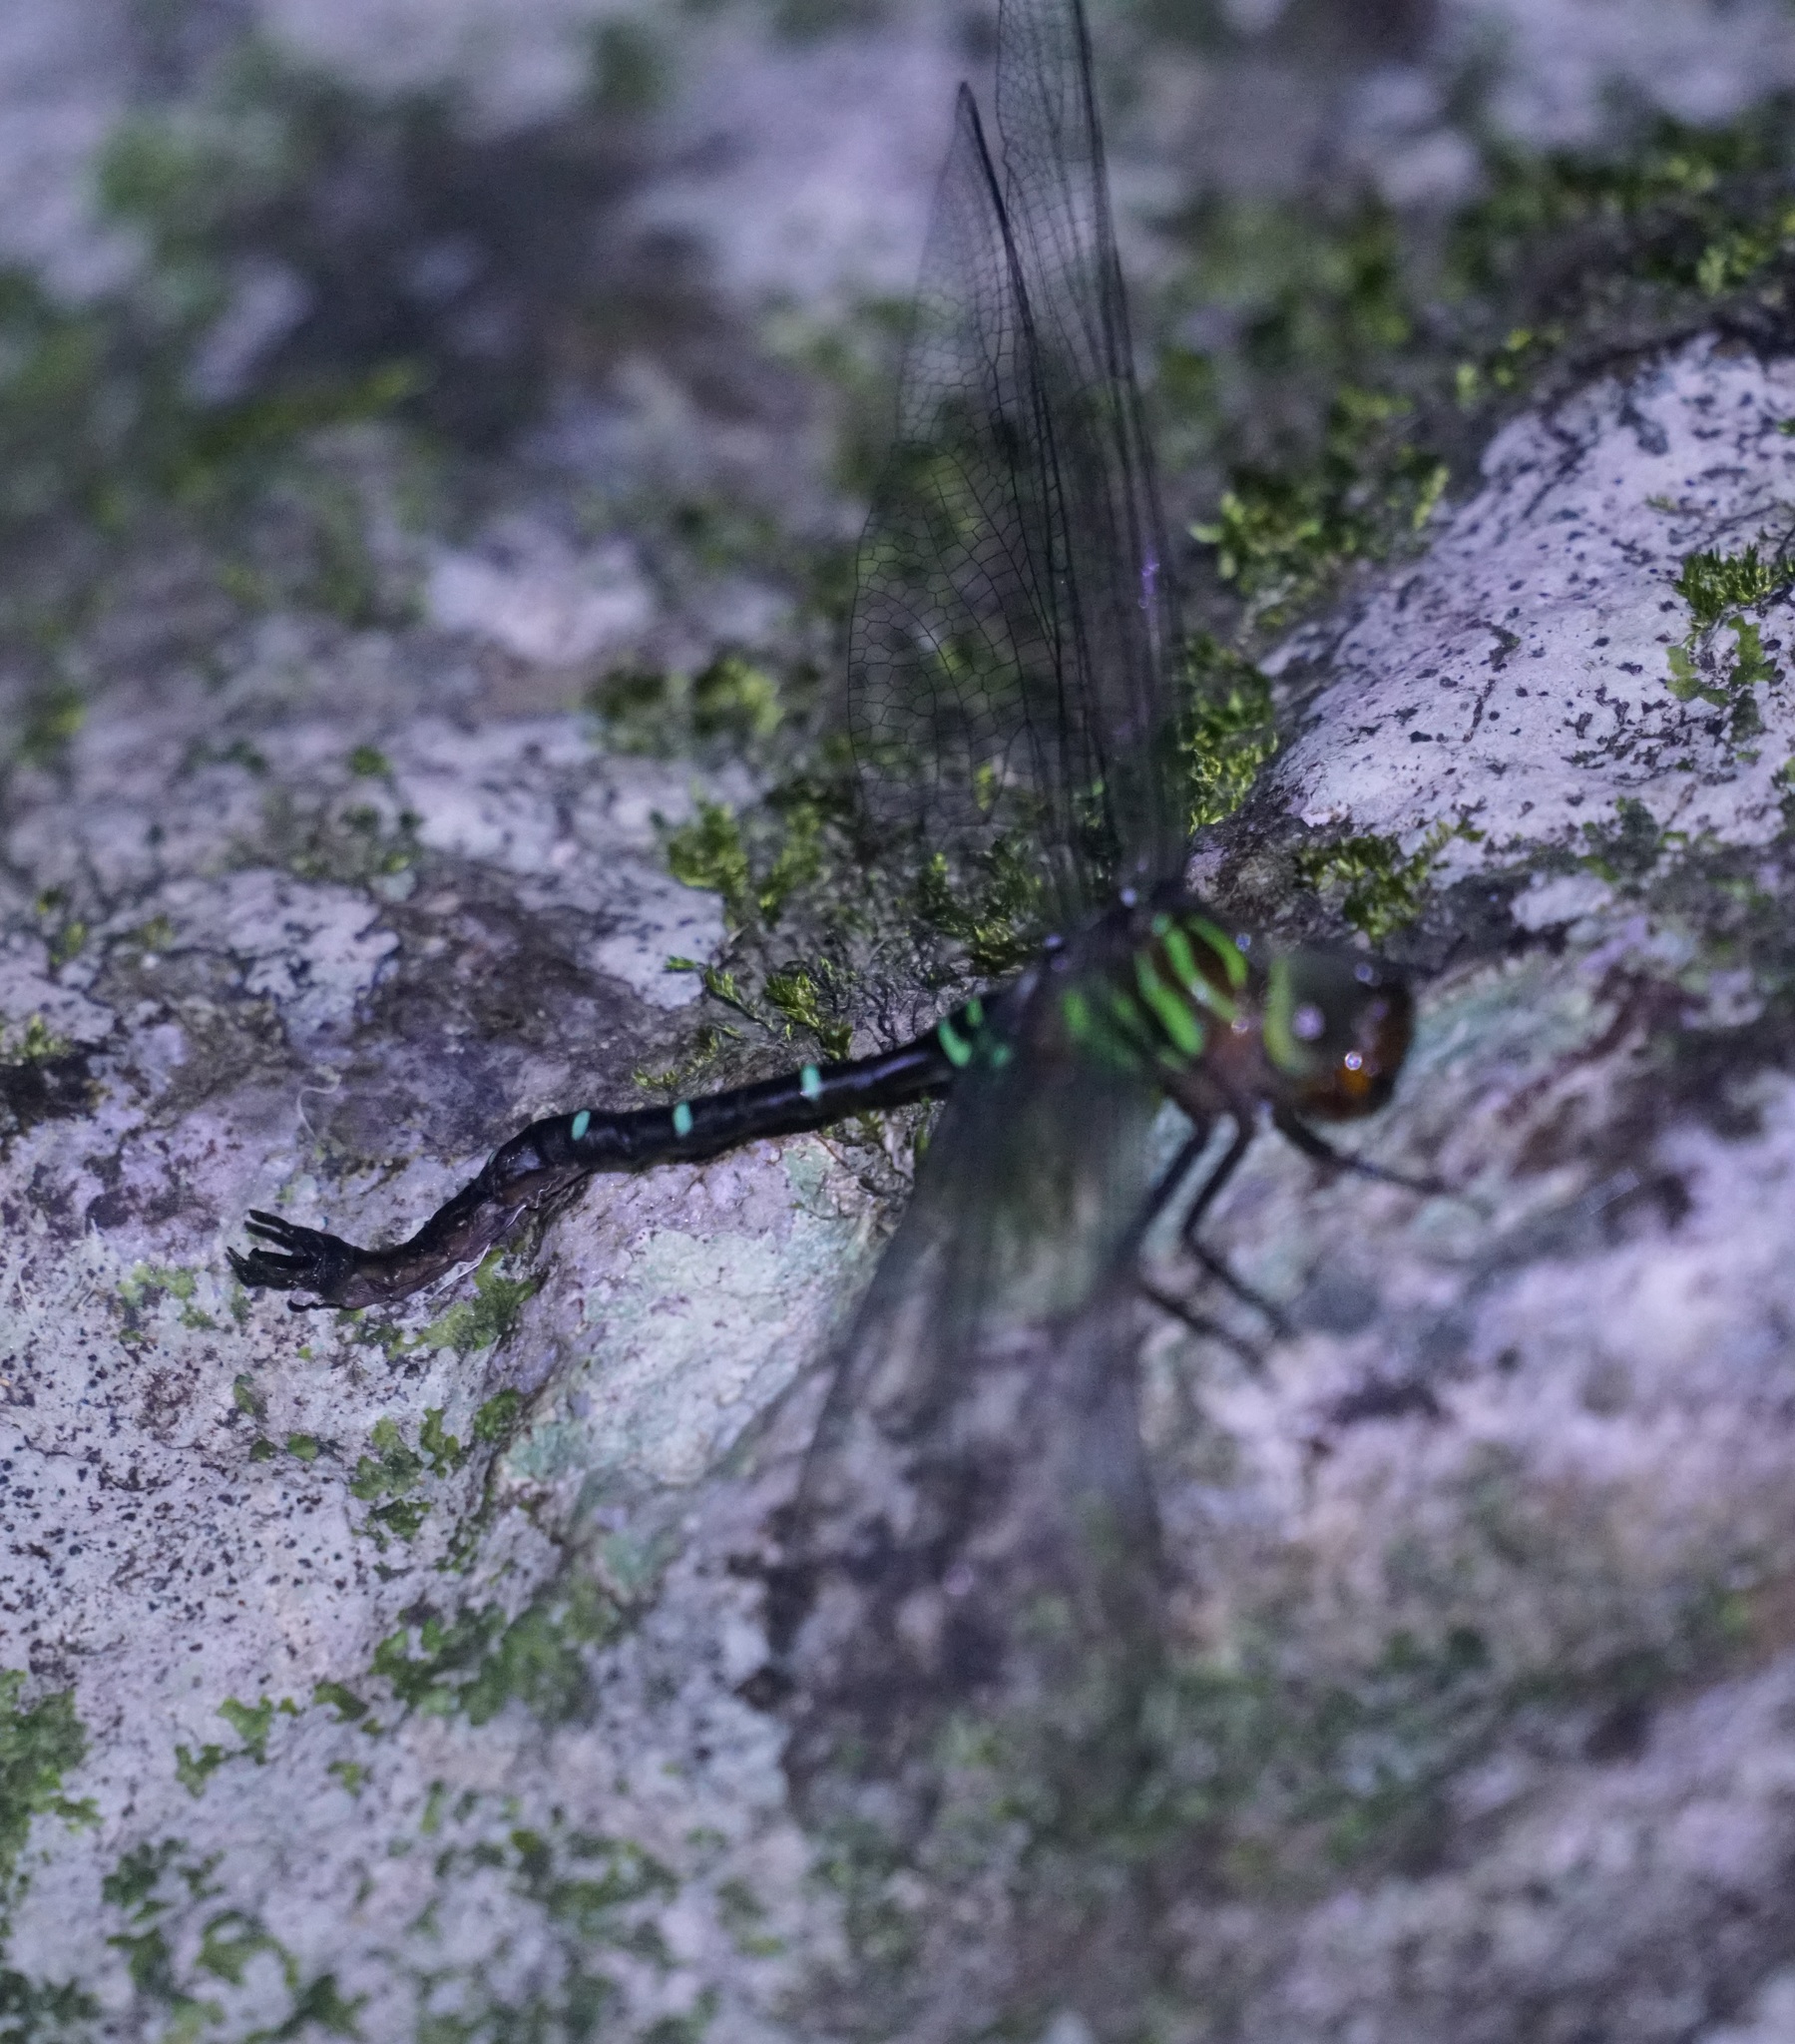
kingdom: Animalia
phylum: Arthropoda
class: Insecta
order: Odonata
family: Aeshnidae
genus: Dromaeschna
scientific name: Dromaeschna forcipata
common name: Green-striped darner
